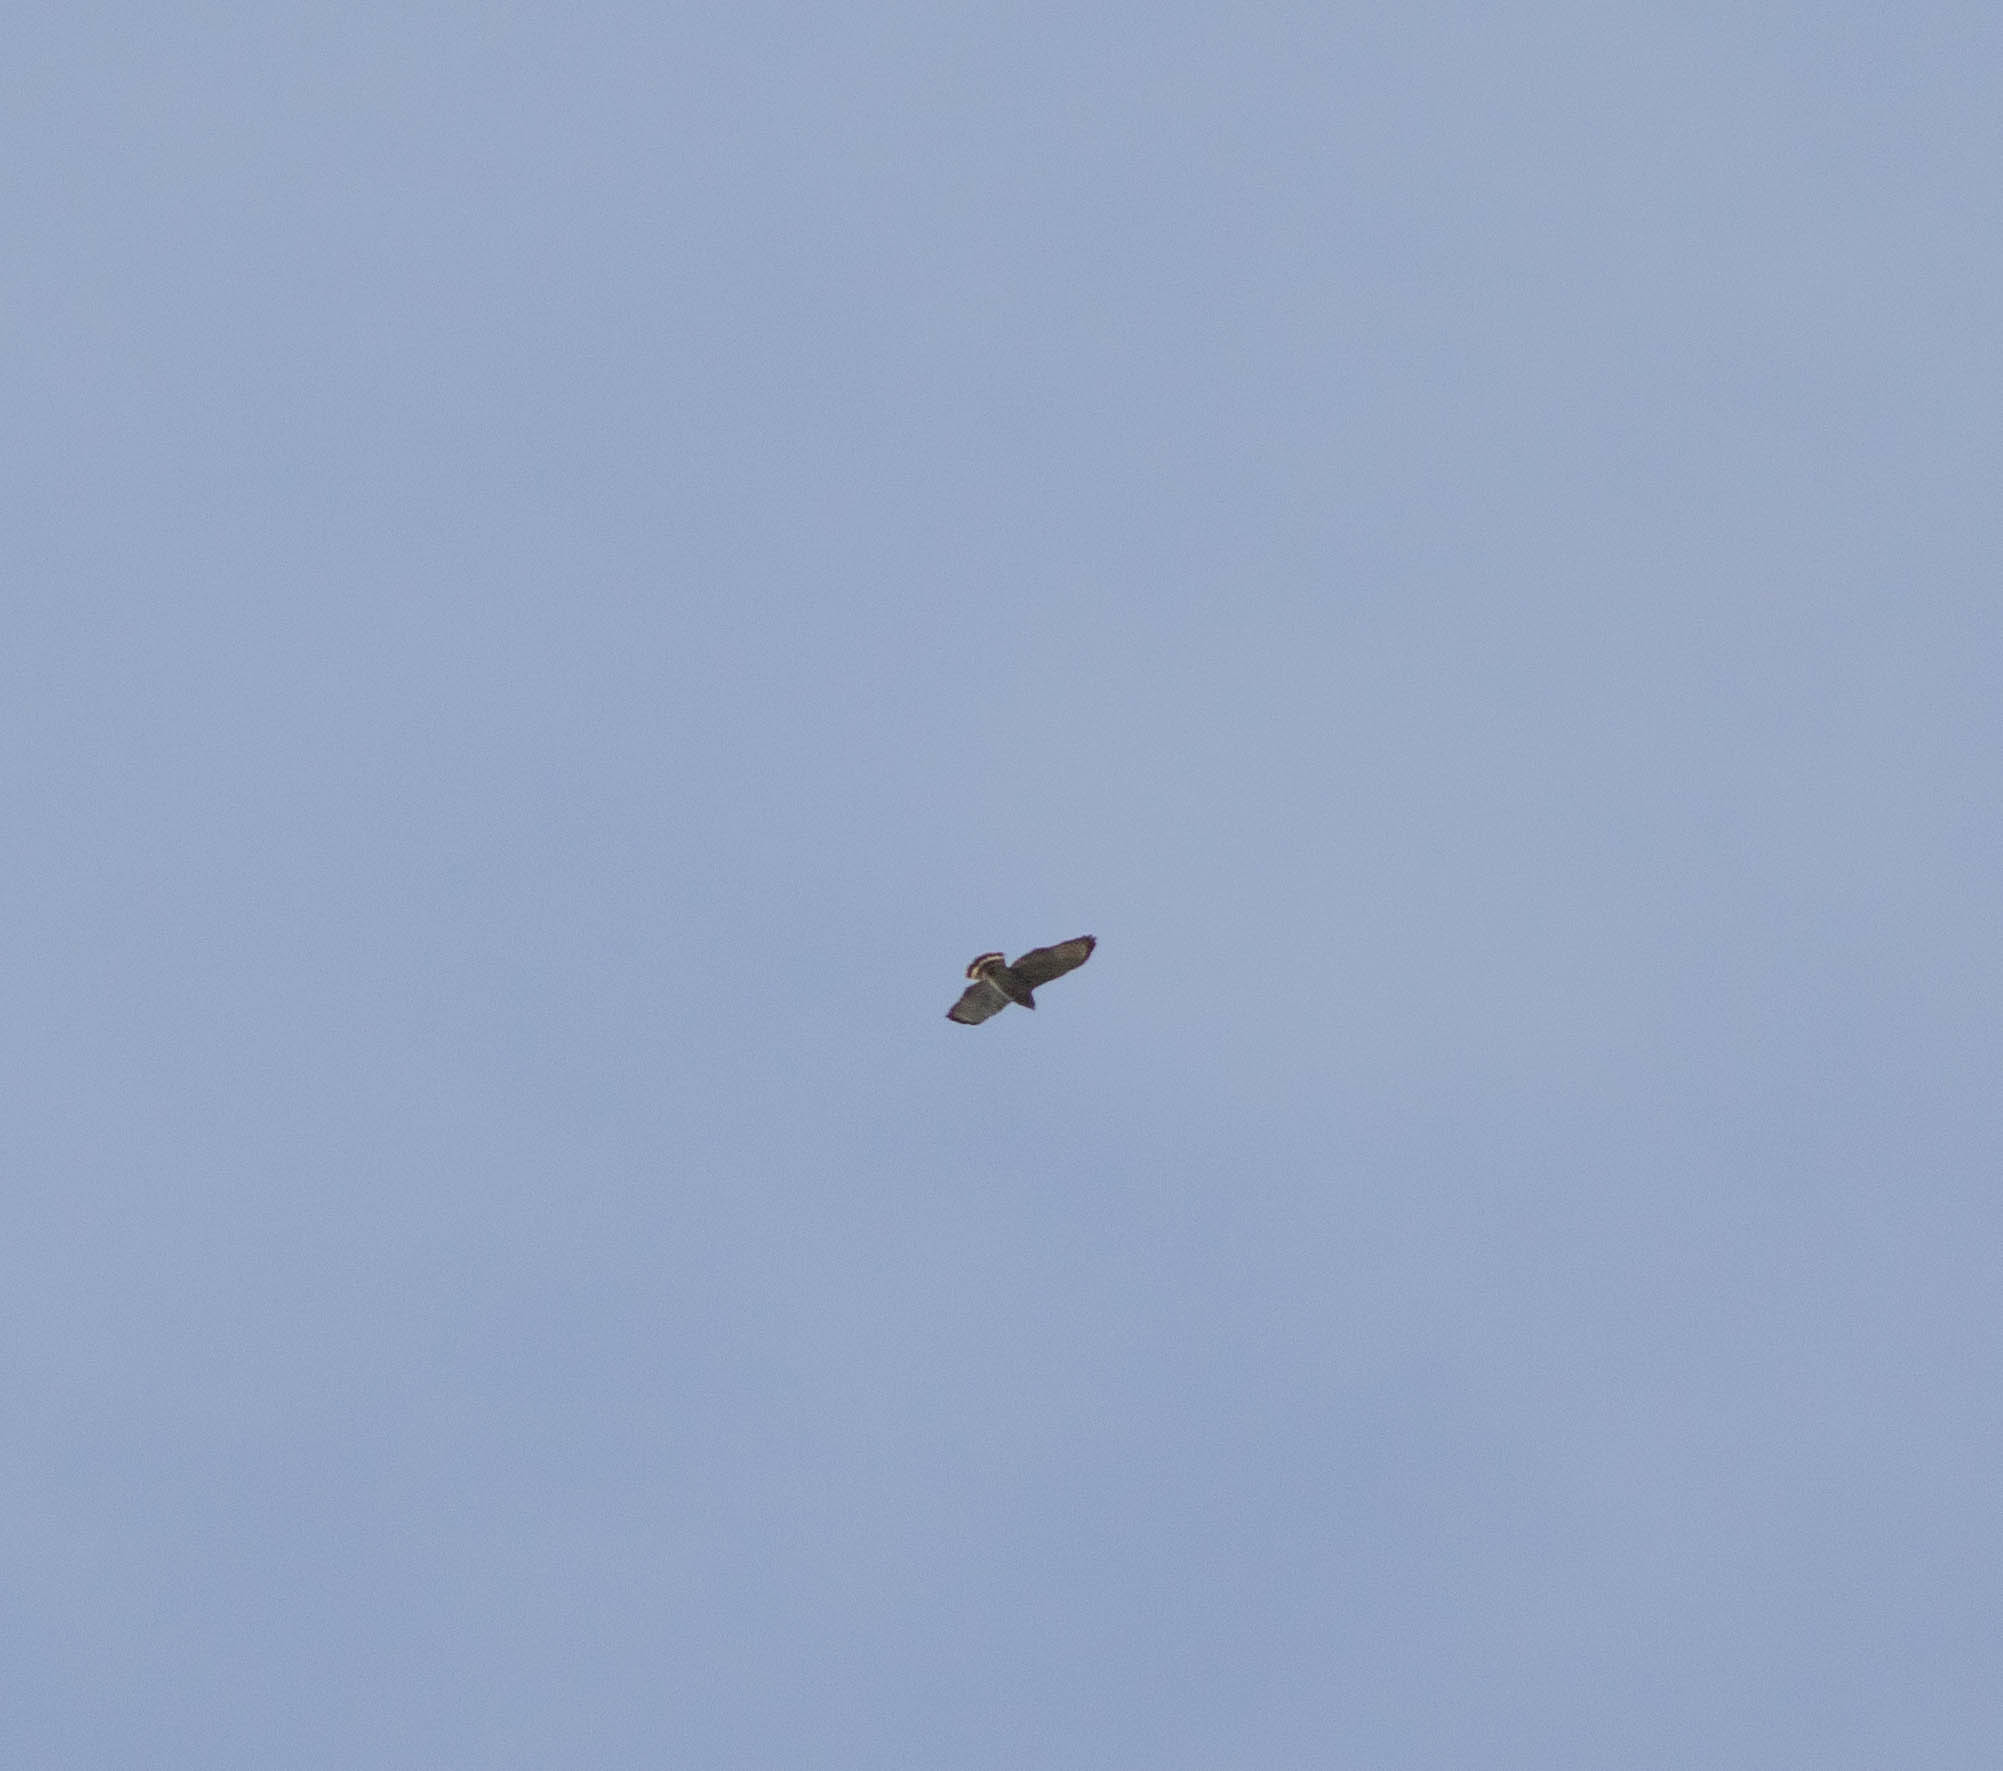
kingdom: Animalia
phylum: Chordata
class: Aves
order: Accipitriformes
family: Accipitridae
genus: Buteo
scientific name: Buteo platypterus
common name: Broad-winged hawk
